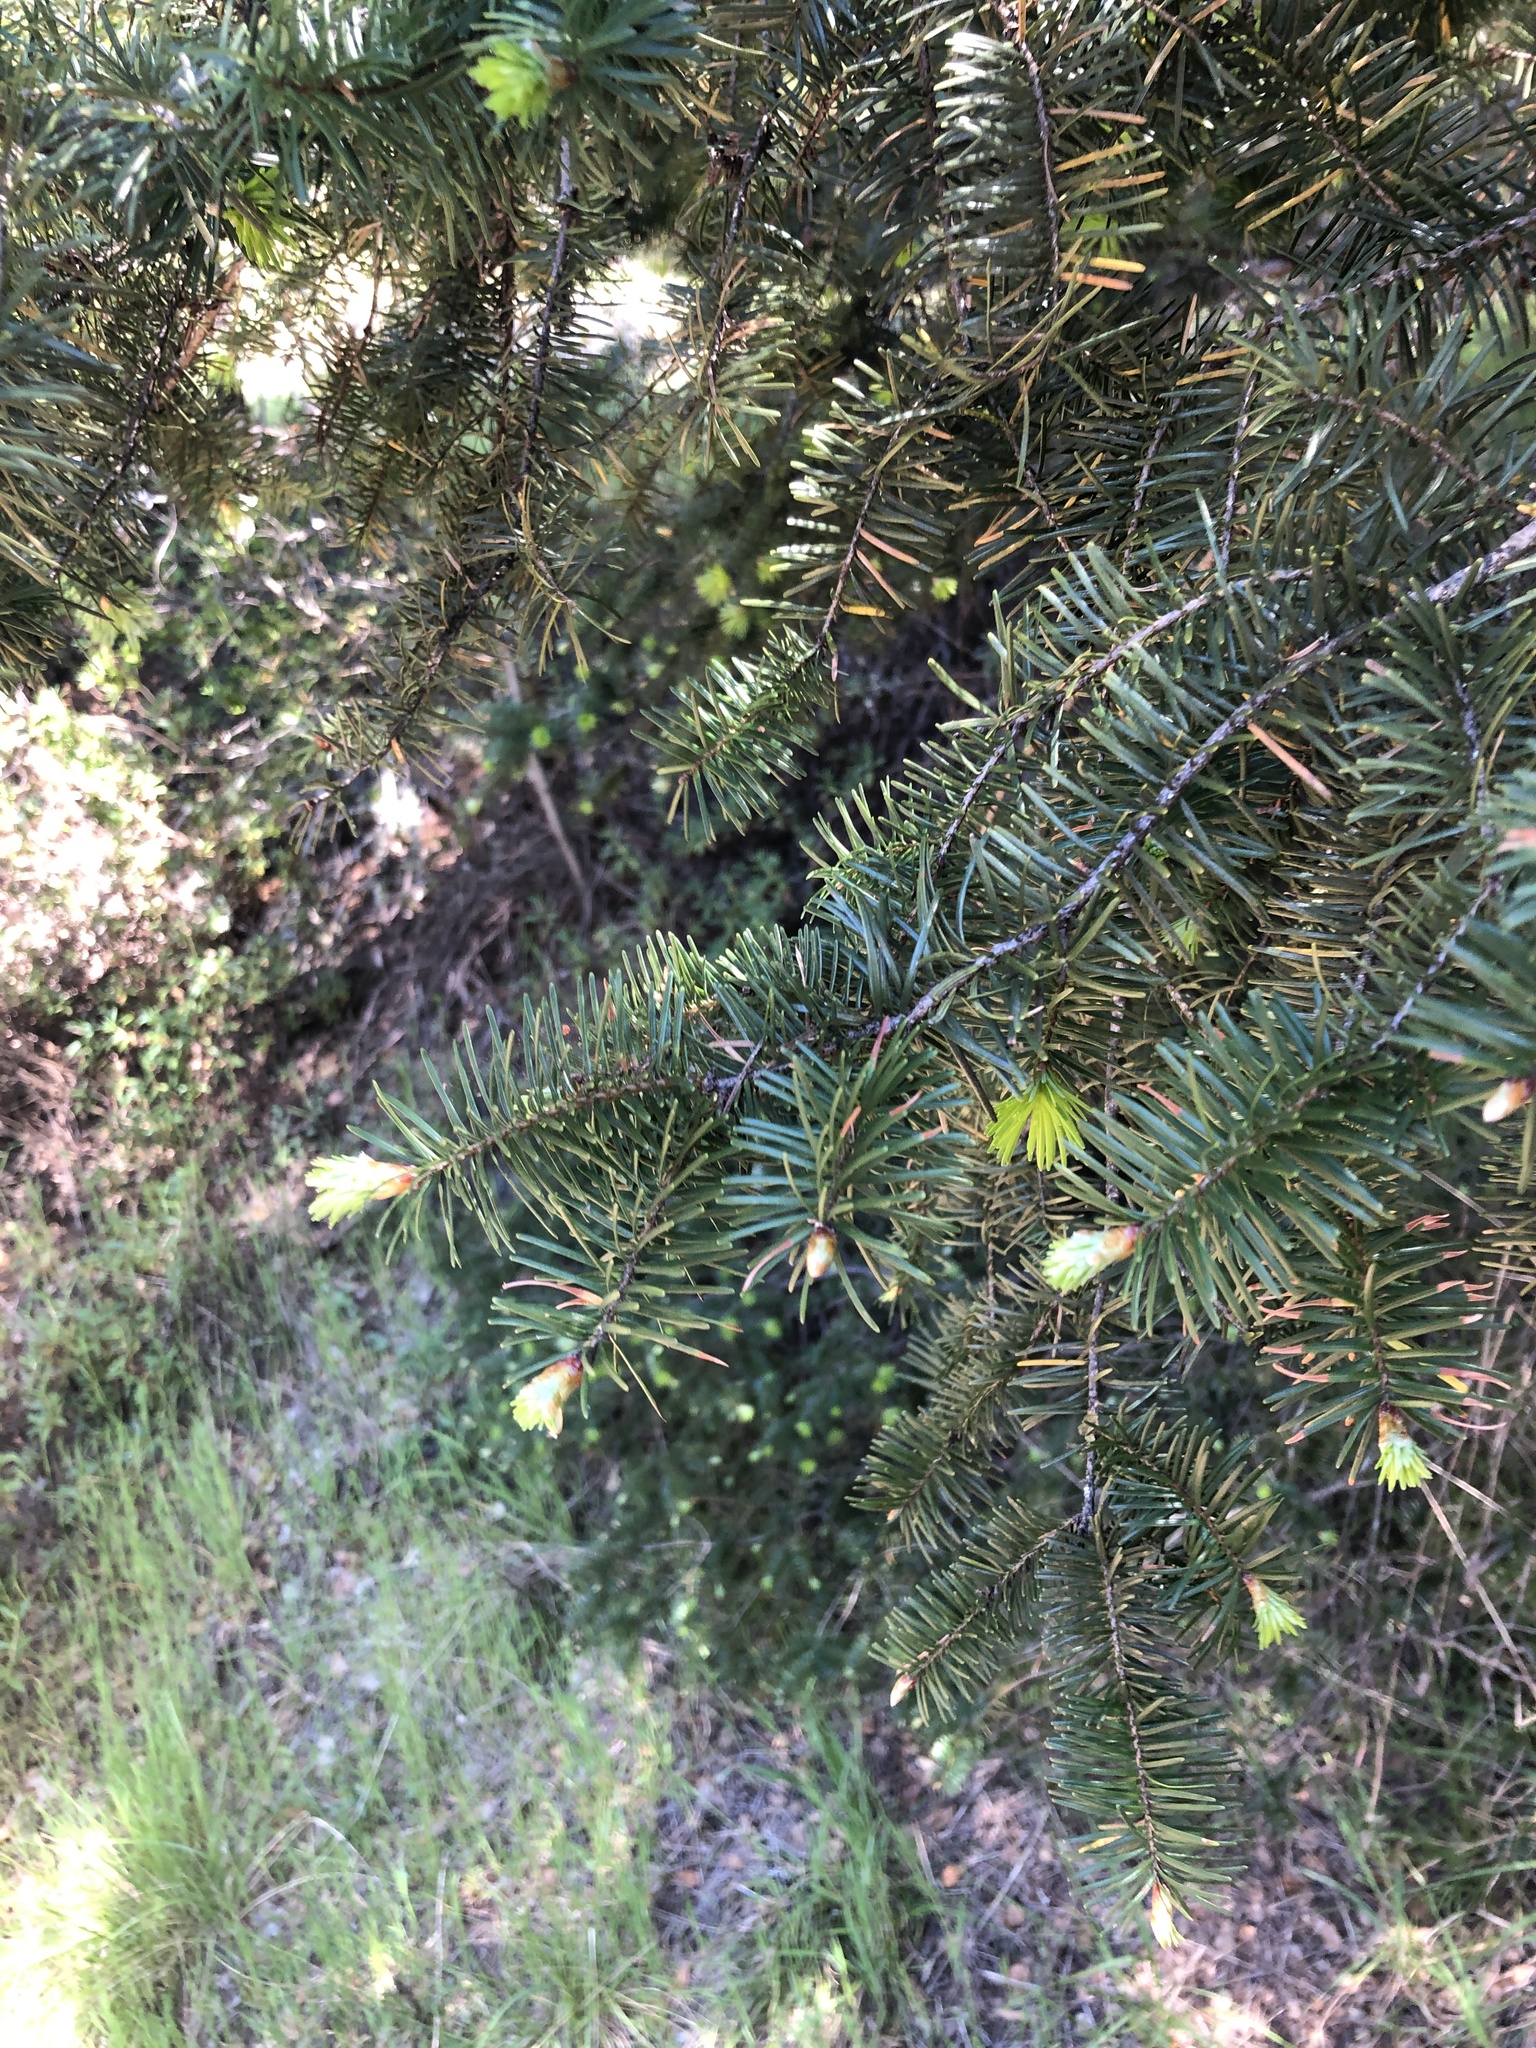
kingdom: Plantae
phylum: Tracheophyta
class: Pinopsida
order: Pinales
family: Pinaceae
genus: Pseudotsuga
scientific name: Pseudotsuga menziesii
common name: Douglas fir
